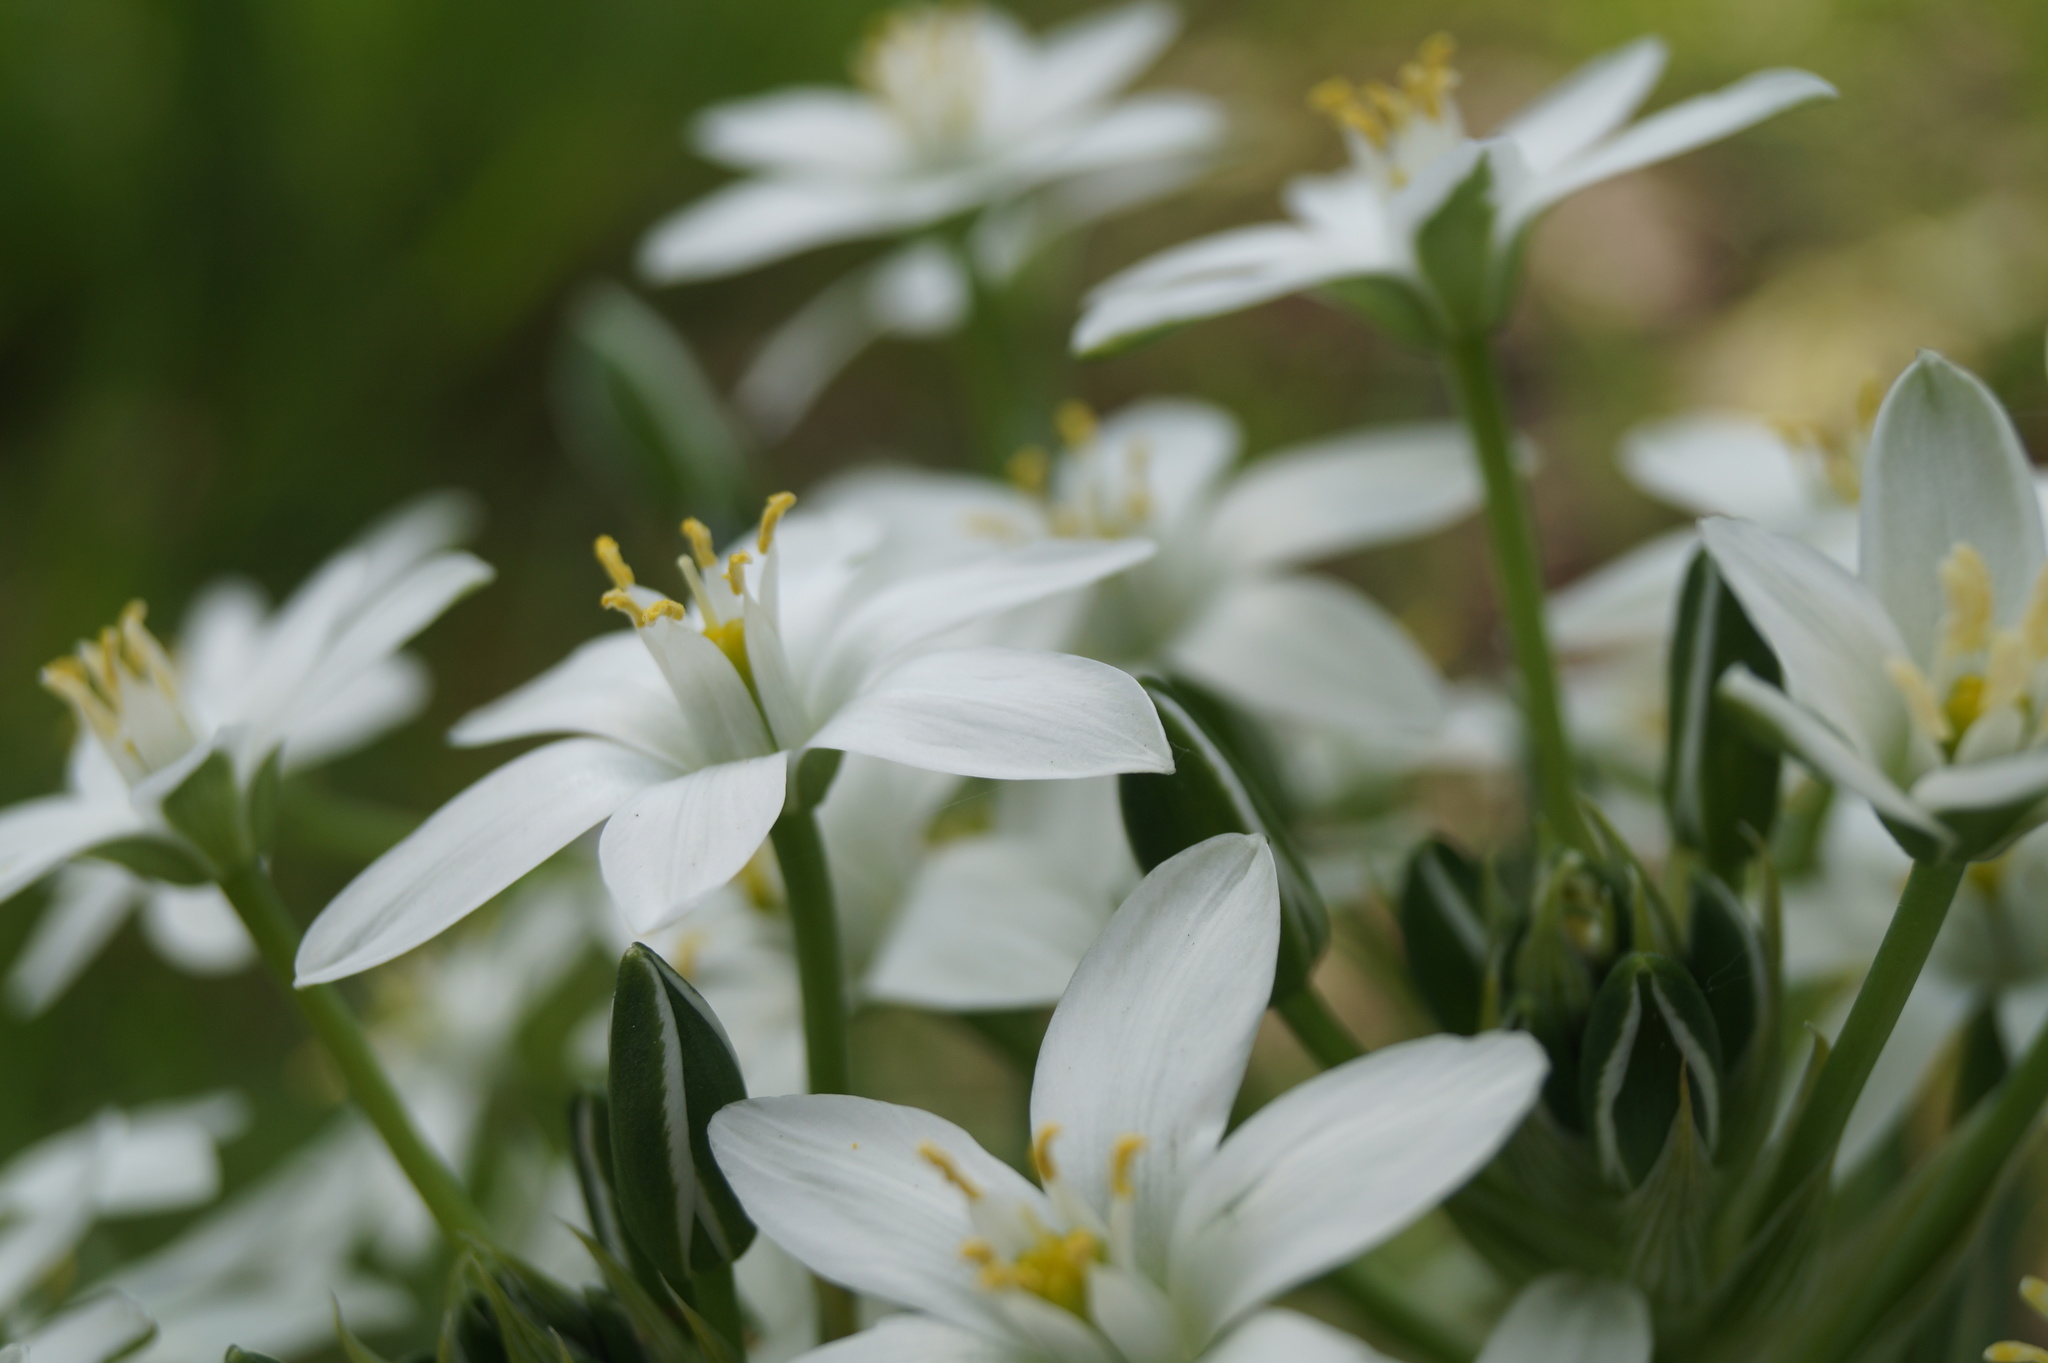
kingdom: Plantae
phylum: Tracheophyta
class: Liliopsida
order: Asparagales
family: Asparagaceae
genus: Ornithogalum
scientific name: Ornithogalum umbellatum
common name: Garden star-of-bethlehem
